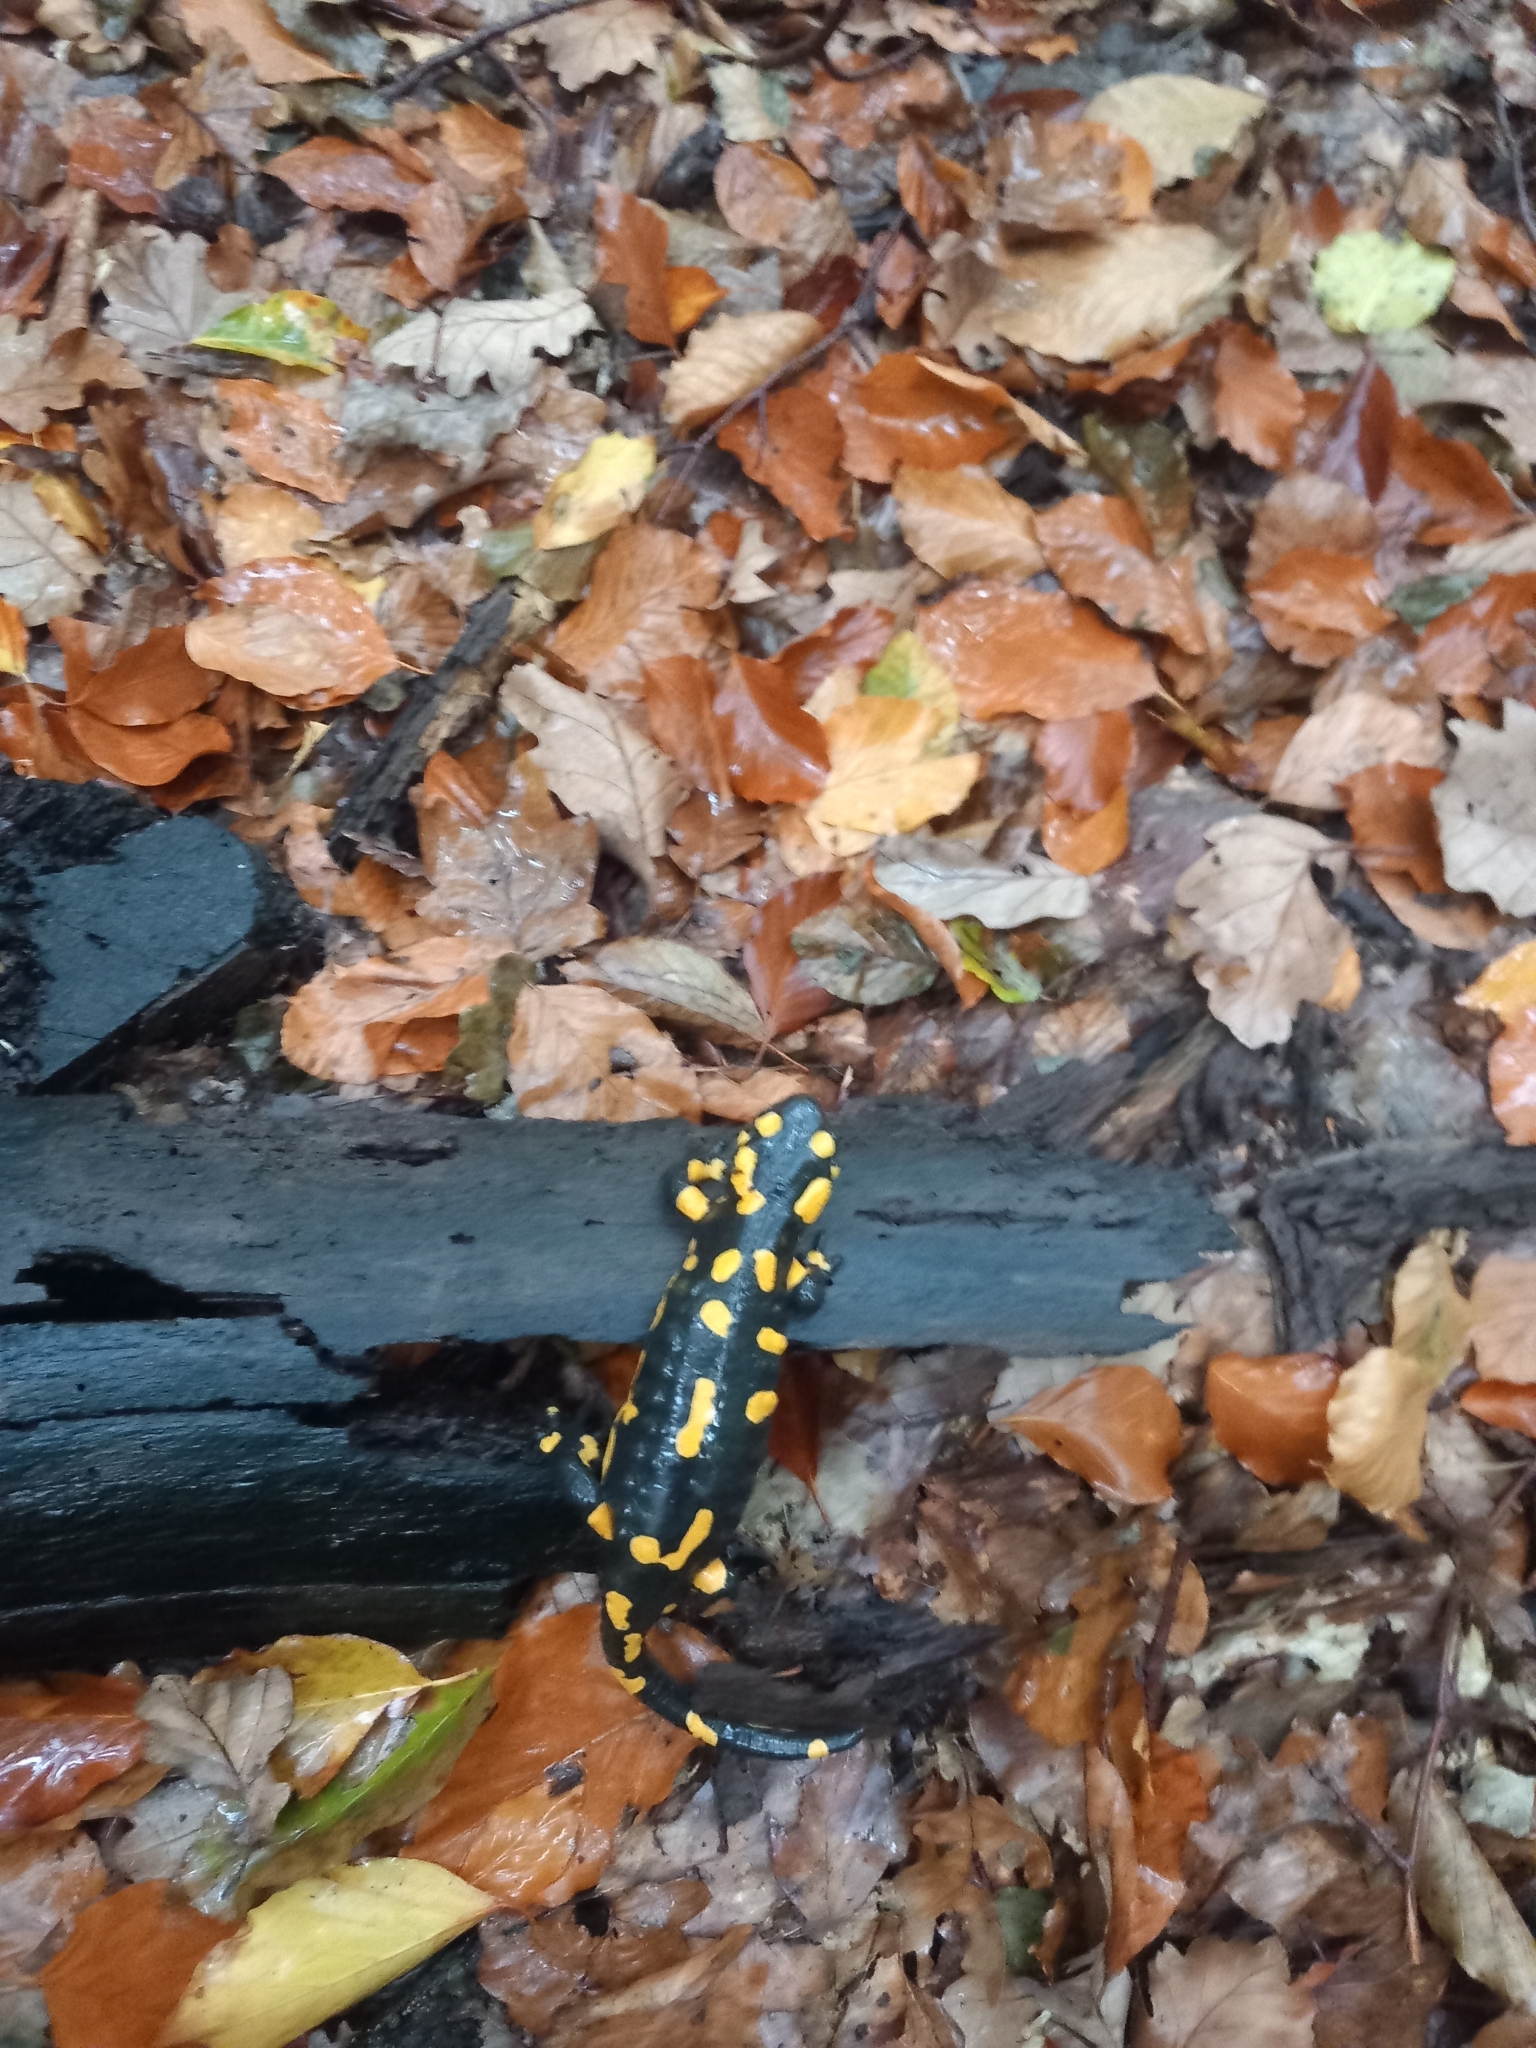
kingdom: Animalia
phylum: Chordata
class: Amphibia
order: Caudata
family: Salamandridae
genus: Salamandra
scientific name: Salamandra salamandra
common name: Fire salamander
